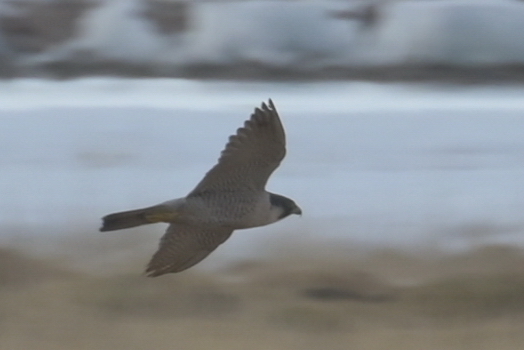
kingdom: Animalia
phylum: Chordata
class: Aves
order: Falconiformes
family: Falconidae
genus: Falco
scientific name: Falco peregrinus
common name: Peregrine falcon
